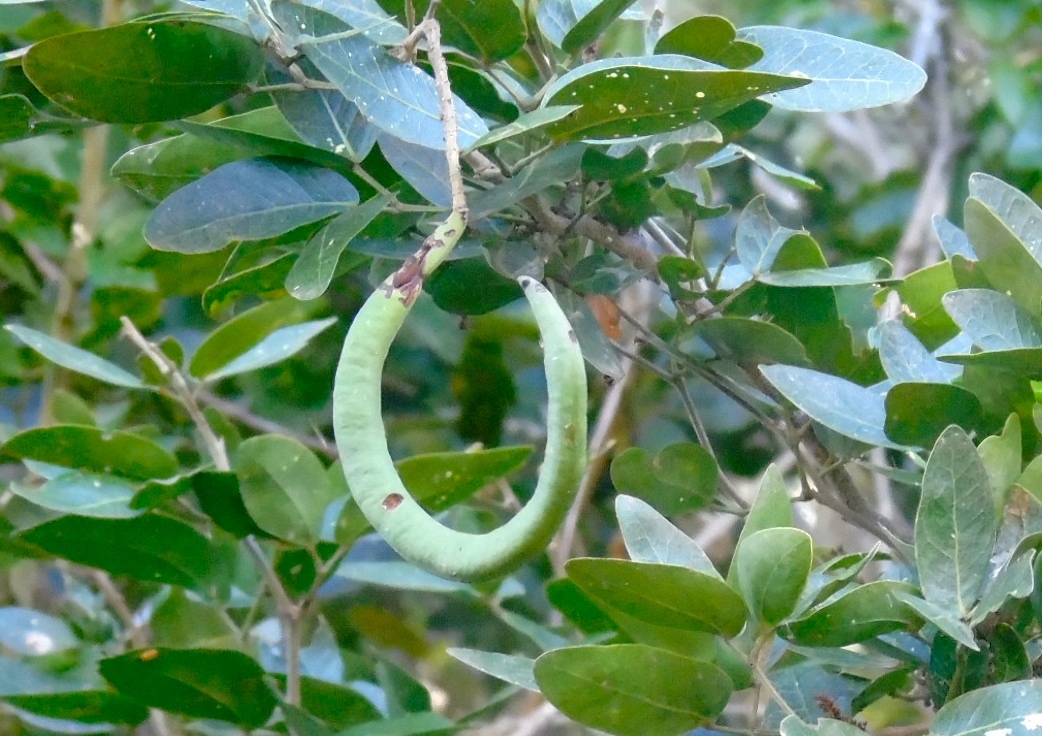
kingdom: Plantae
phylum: Tracheophyta
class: Magnoliopsida
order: Fabales
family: Fabaceae
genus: Pithecellobium
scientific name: Pithecellobium lanceolatum
